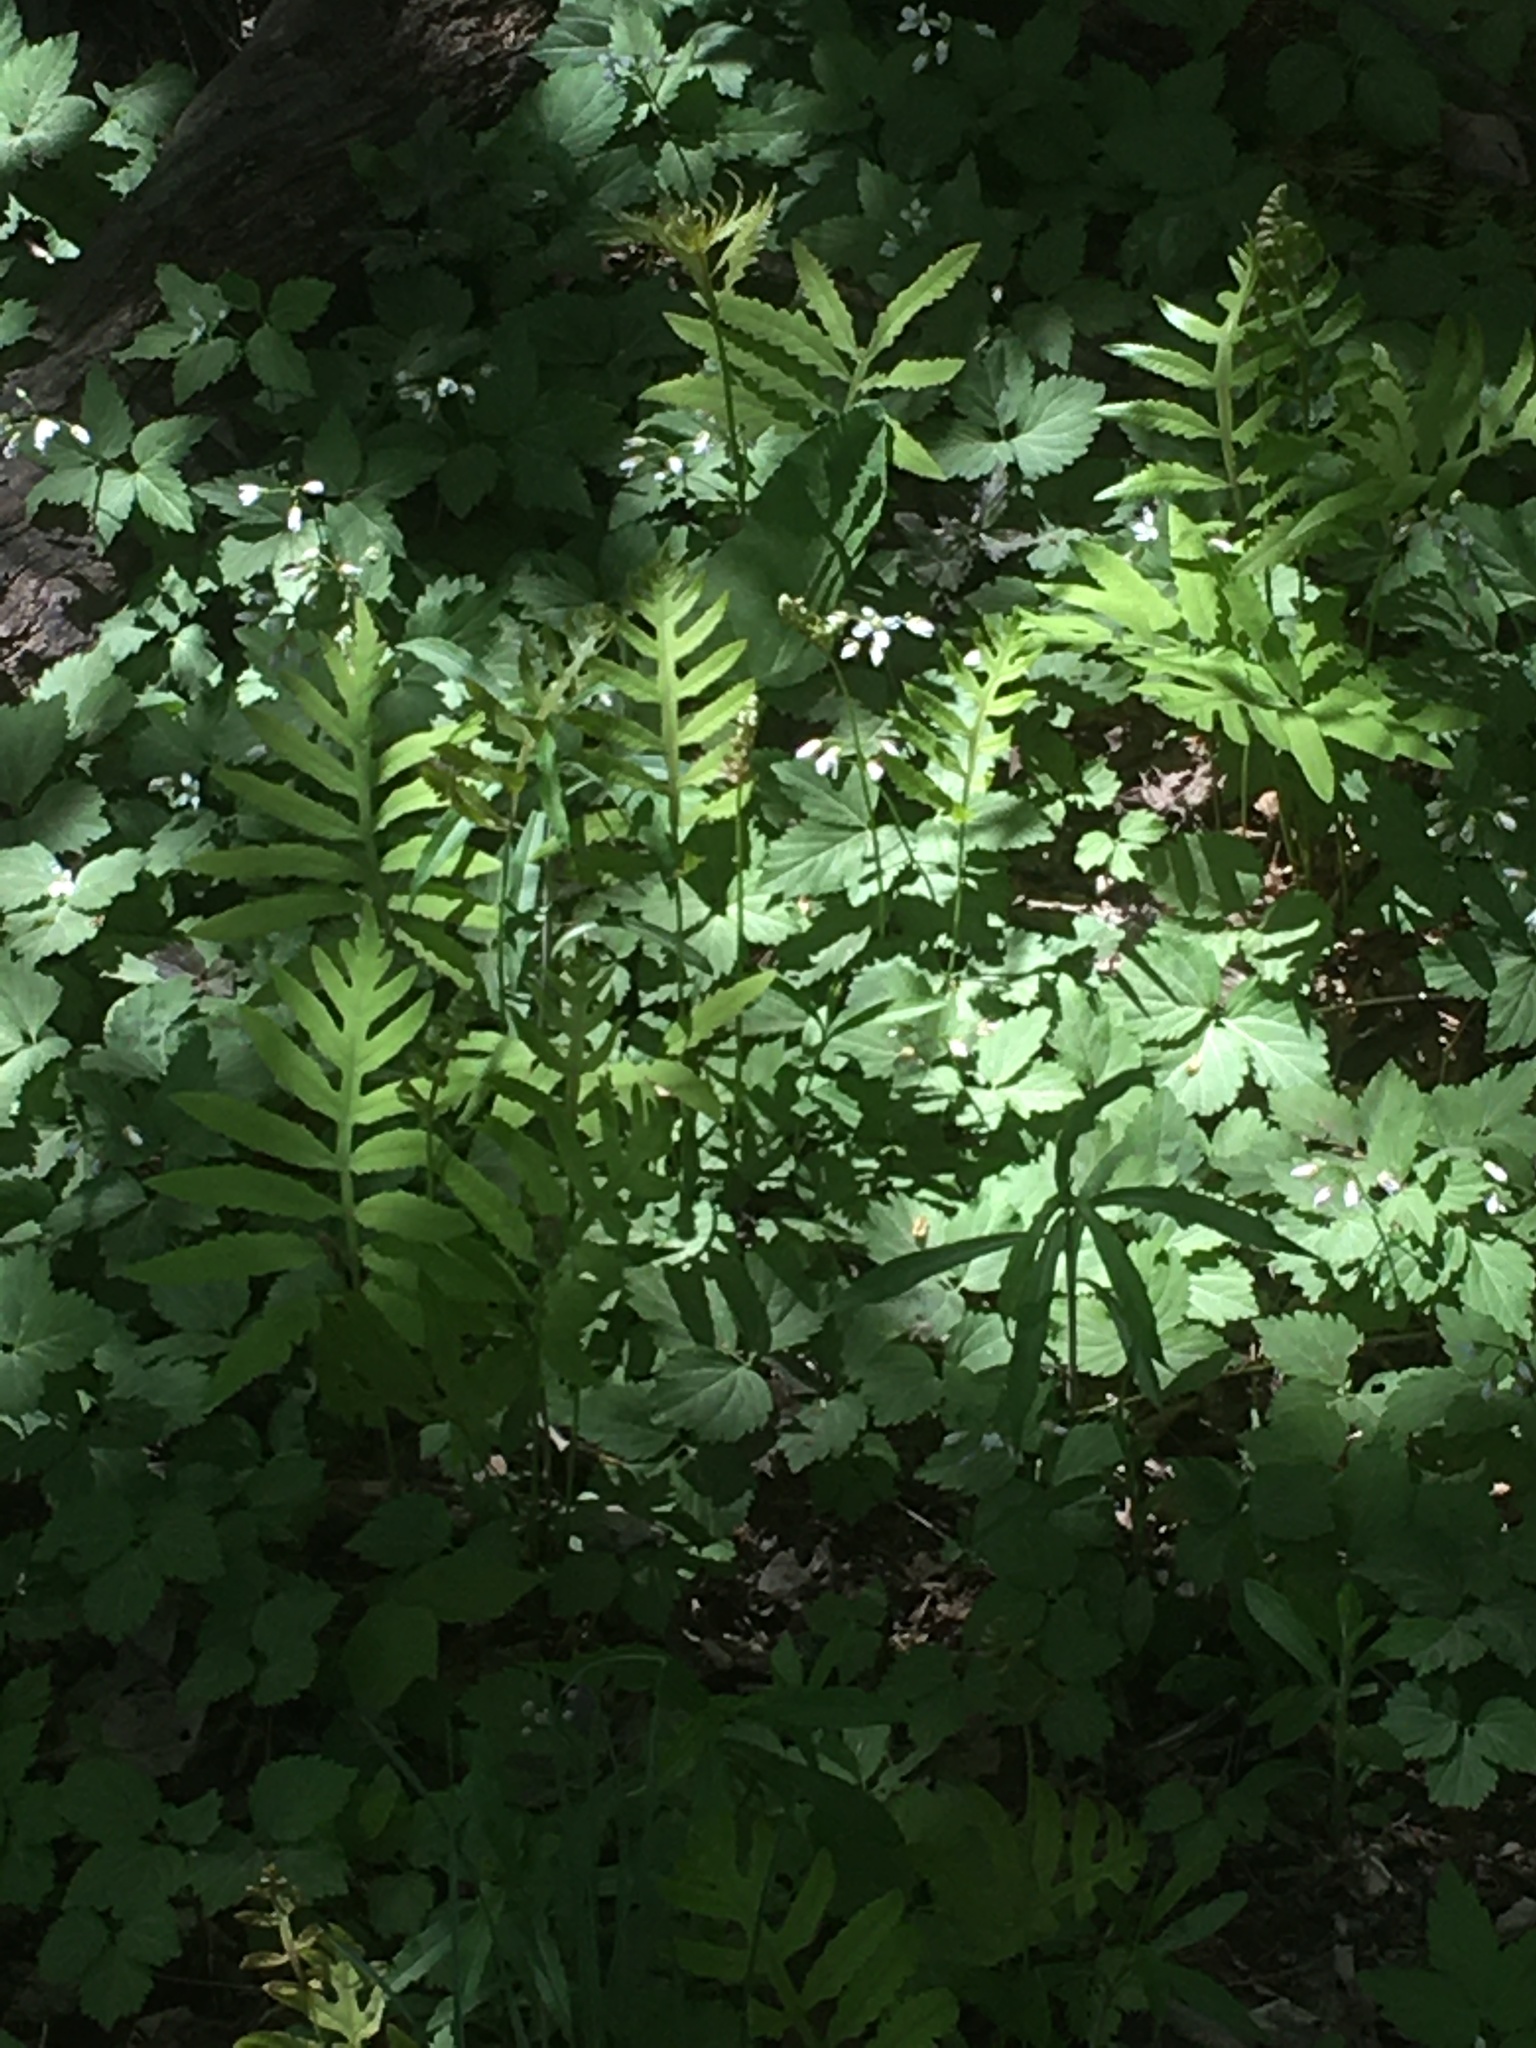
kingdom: Plantae
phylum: Tracheophyta
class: Magnoliopsida
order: Brassicales
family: Brassicaceae
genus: Cardamine
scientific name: Cardamine diphylla
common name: Broad-leaved toothwort
